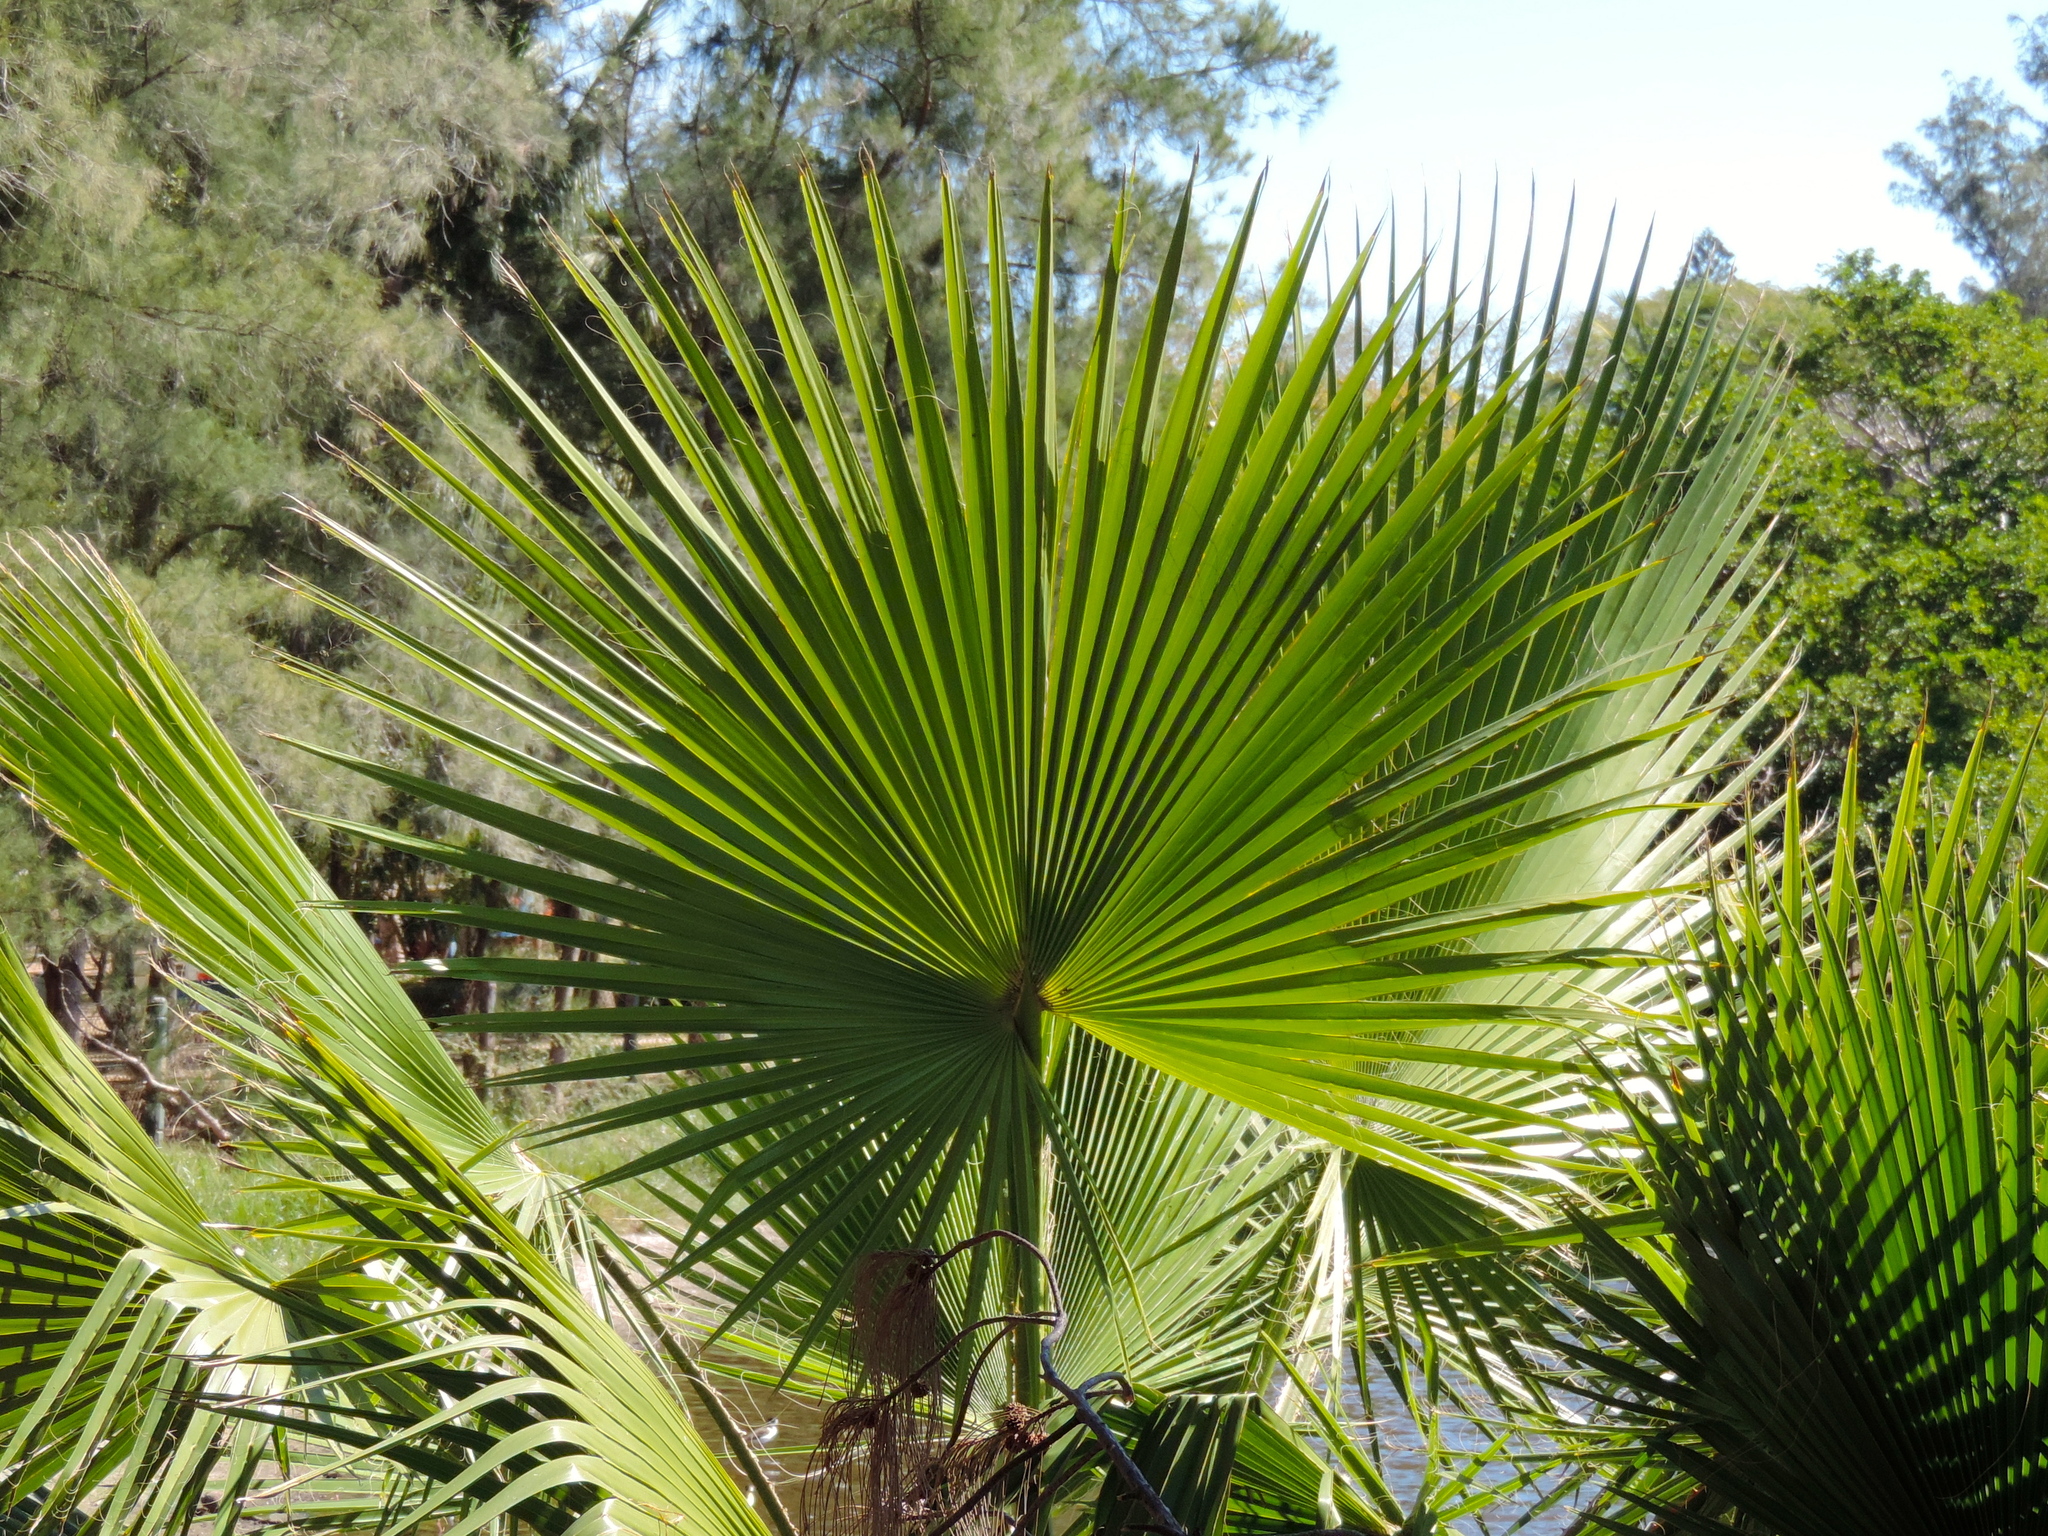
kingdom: Plantae
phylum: Tracheophyta
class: Liliopsida
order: Arecales
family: Arecaceae
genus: Washingtonia
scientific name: Washingtonia robusta
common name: Mexican fan palm
